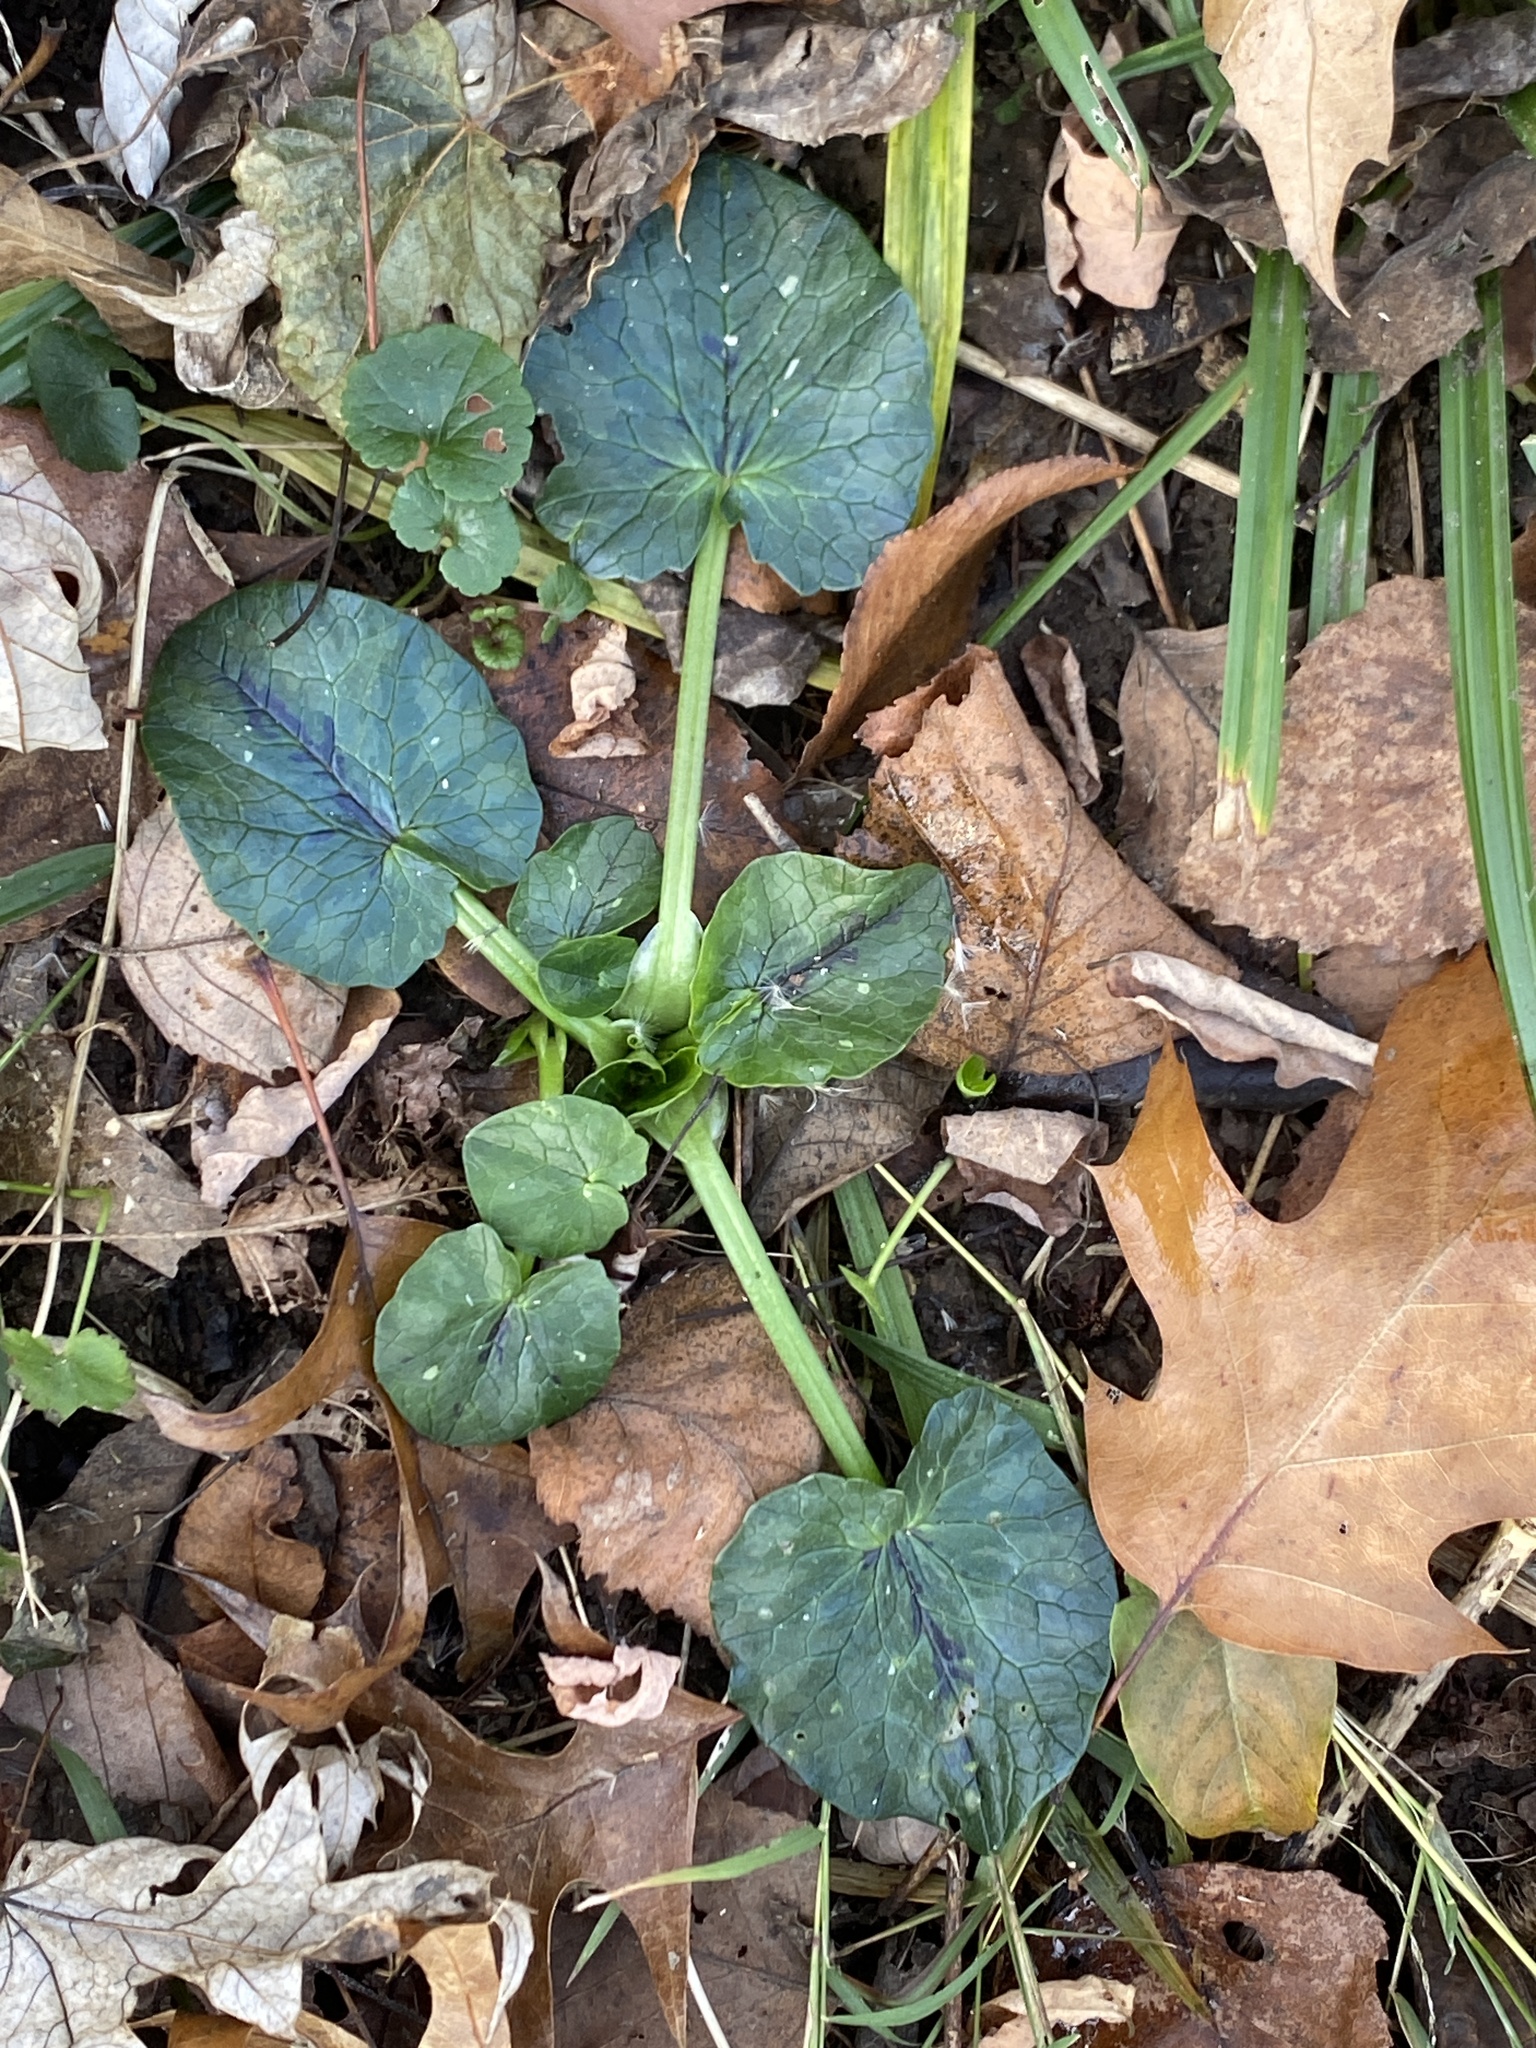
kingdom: Plantae
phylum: Tracheophyta
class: Magnoliopsida
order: Ranunculales
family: Ranunculaceae
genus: Ficaria
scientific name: Ficaria verna
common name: Lesser celandine
